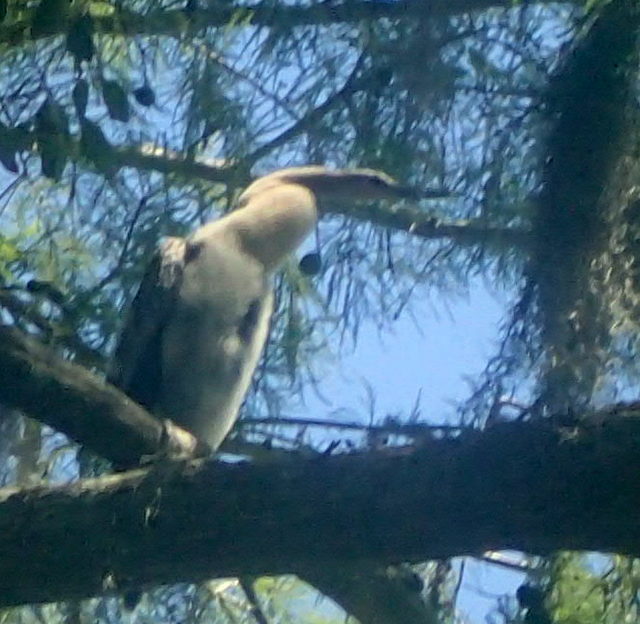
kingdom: Animalia
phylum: Chordata
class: Aves
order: Suliformes
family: Anhingidae
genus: Anhinga
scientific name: Anhinga anhinga
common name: Anhinga
